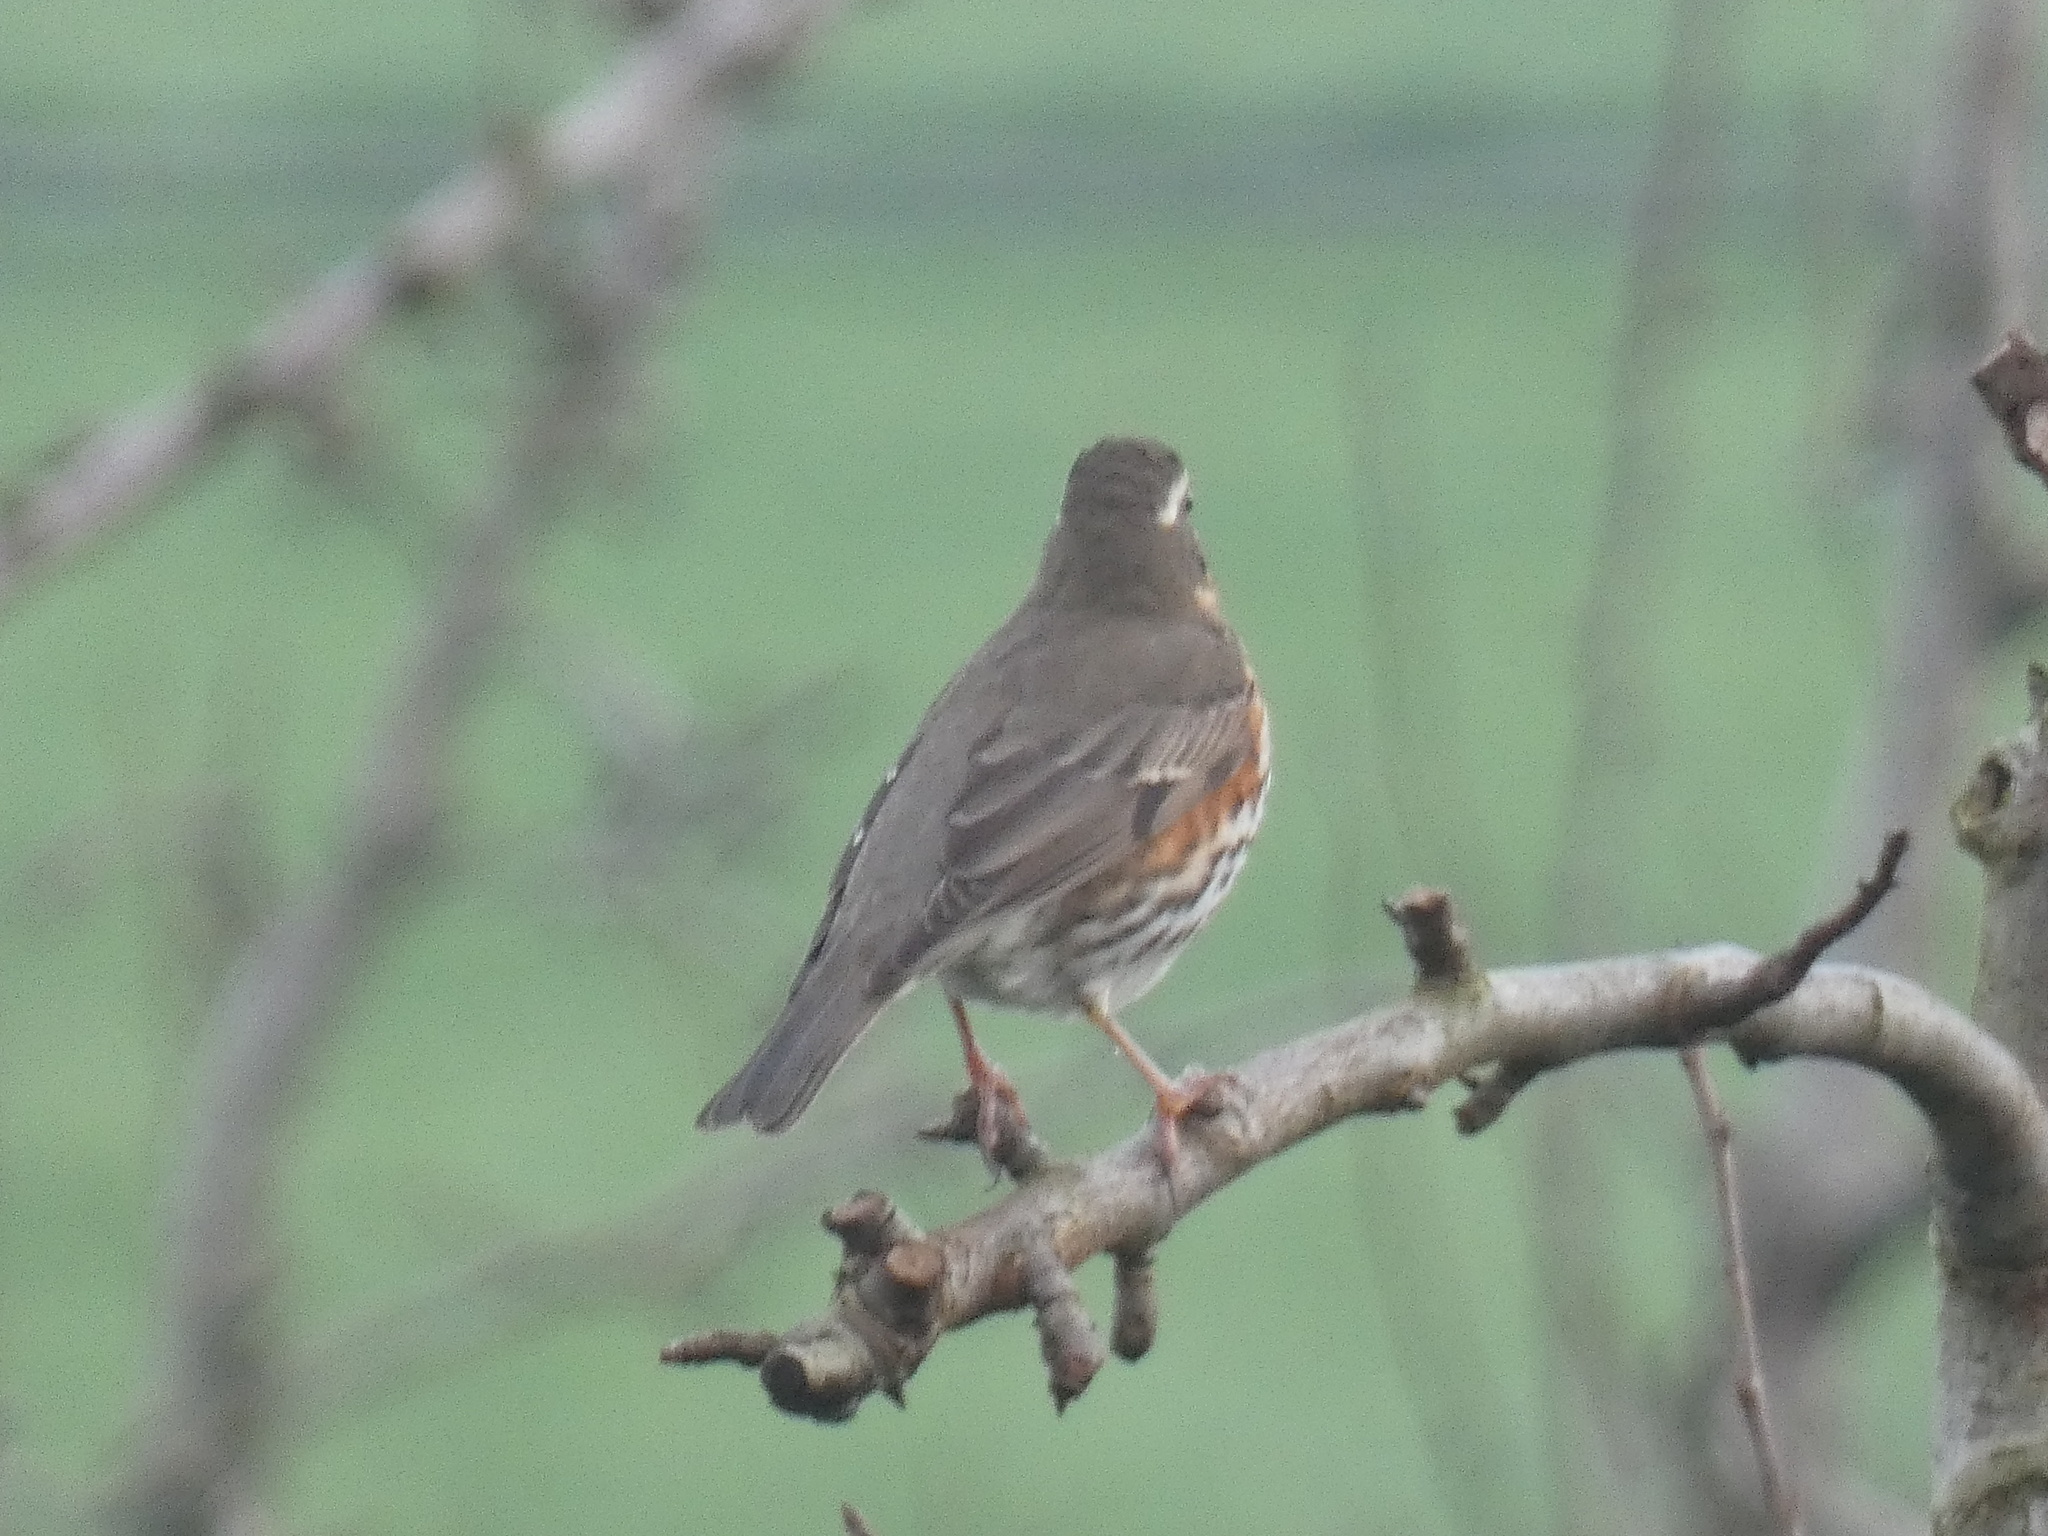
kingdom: Animalia
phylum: Chordata
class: Aves
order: Passeriformes
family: Turdidae
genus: Turdus
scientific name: Turdus iliacus
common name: Redwing
